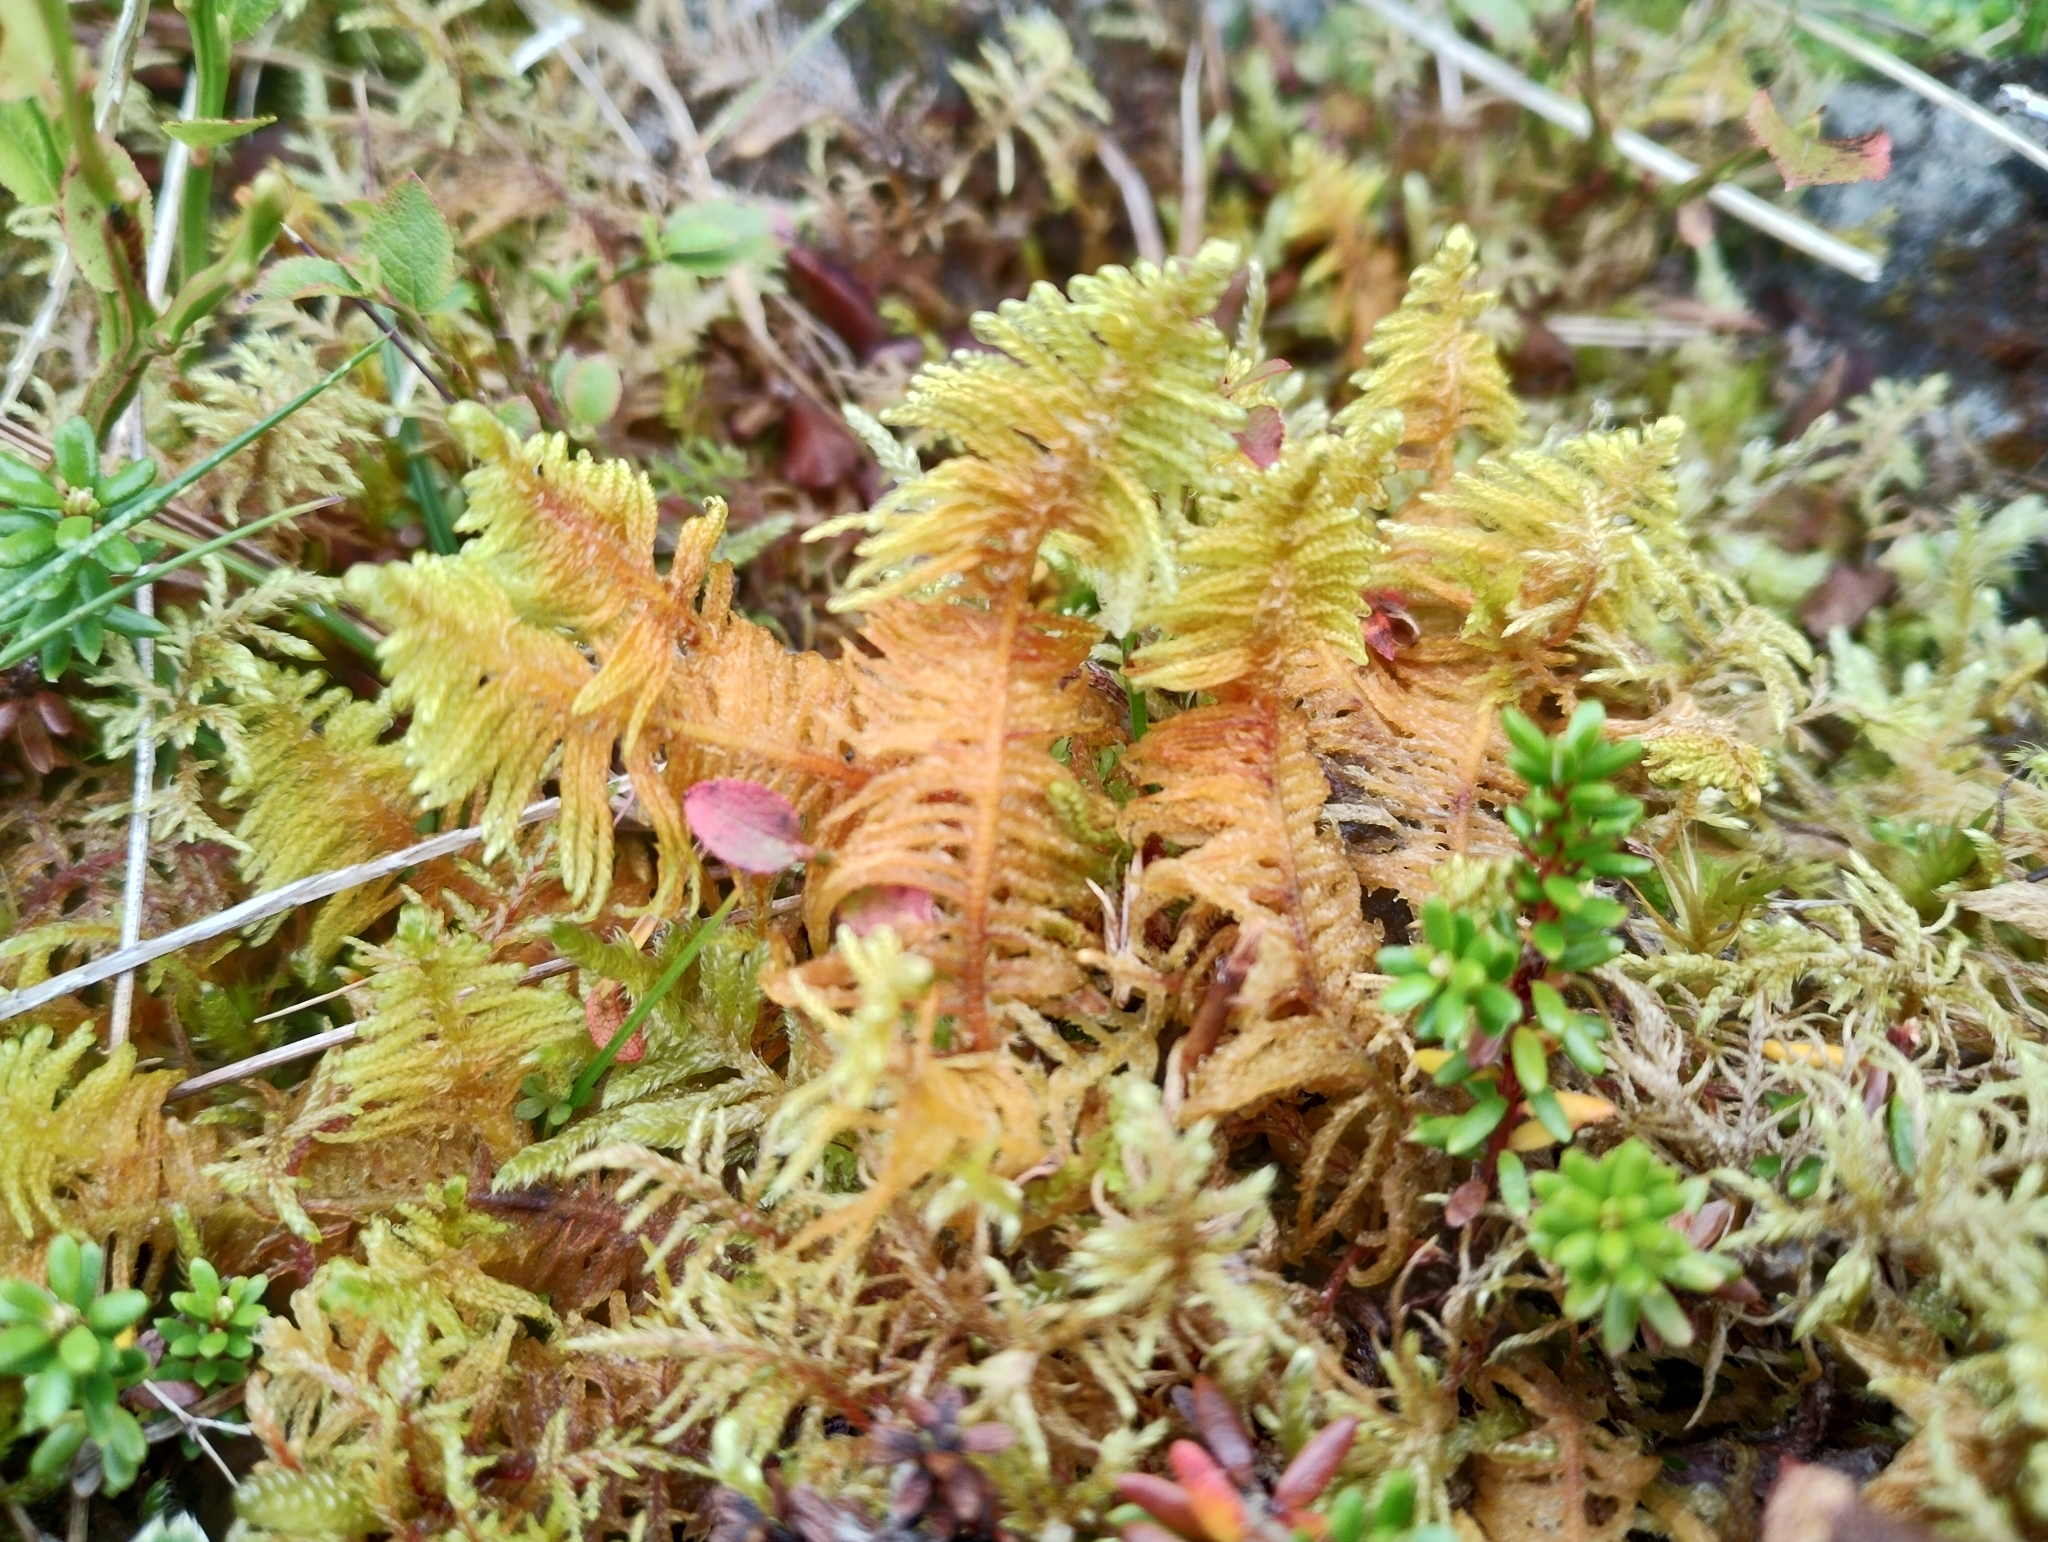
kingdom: Plantae
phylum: Bryophyta
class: Bryopsida
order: Hypnales
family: Pylaisiaceae
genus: Ptilium
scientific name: Ptilium crista-castrensis
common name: Knight's plume moss
